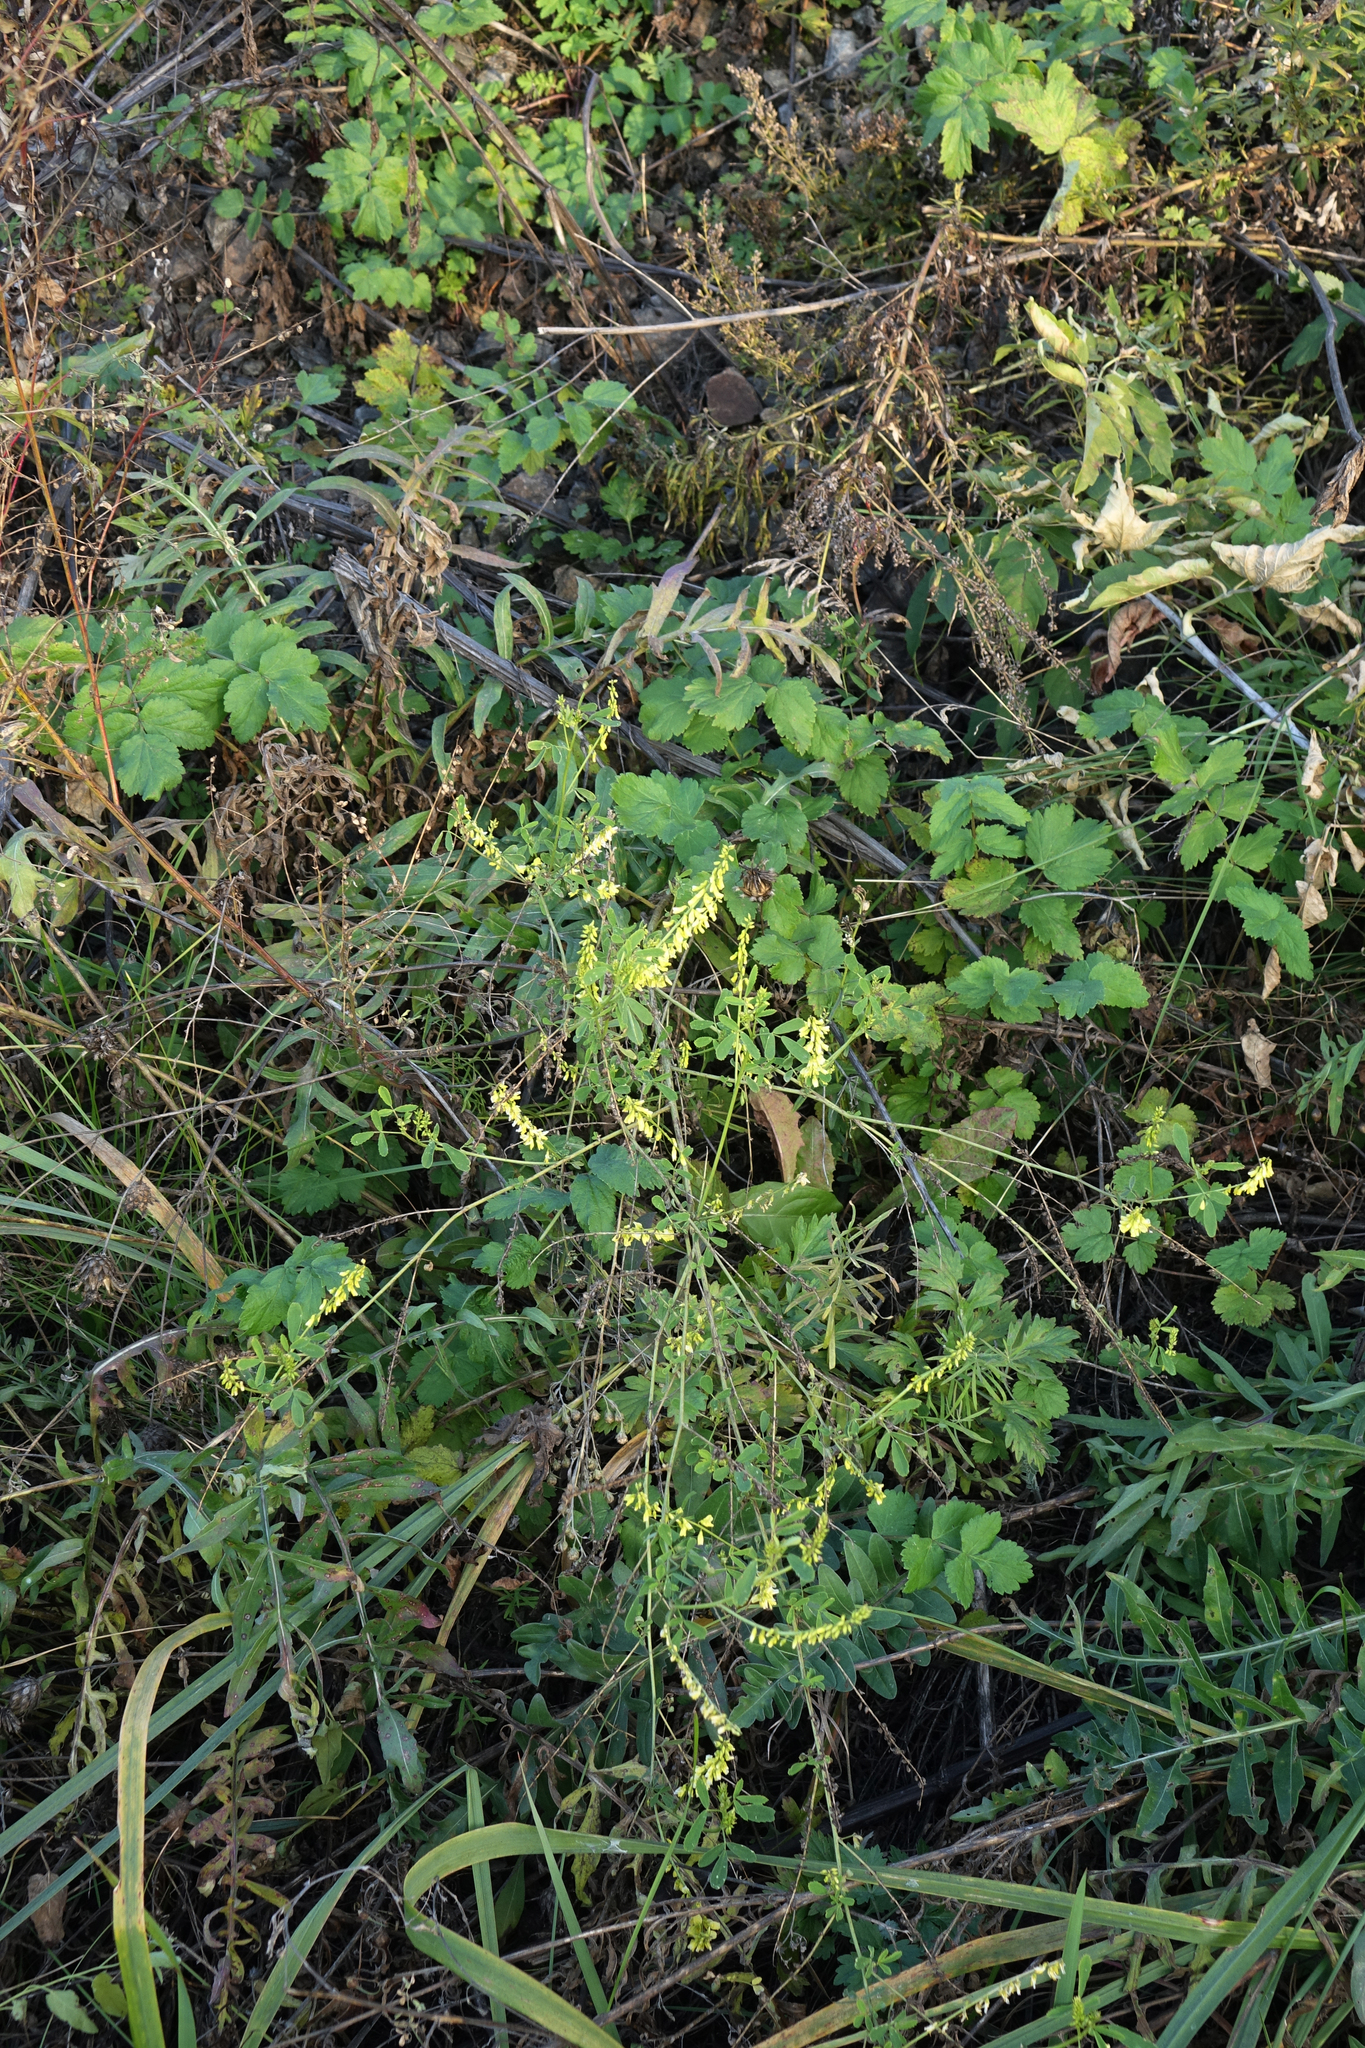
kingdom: Plantae
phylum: Tracheophyta
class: Magnoliopsida
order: Fabales
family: Fabaceae
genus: Melilotus
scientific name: Melilotus officinalis
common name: Sweetclover
